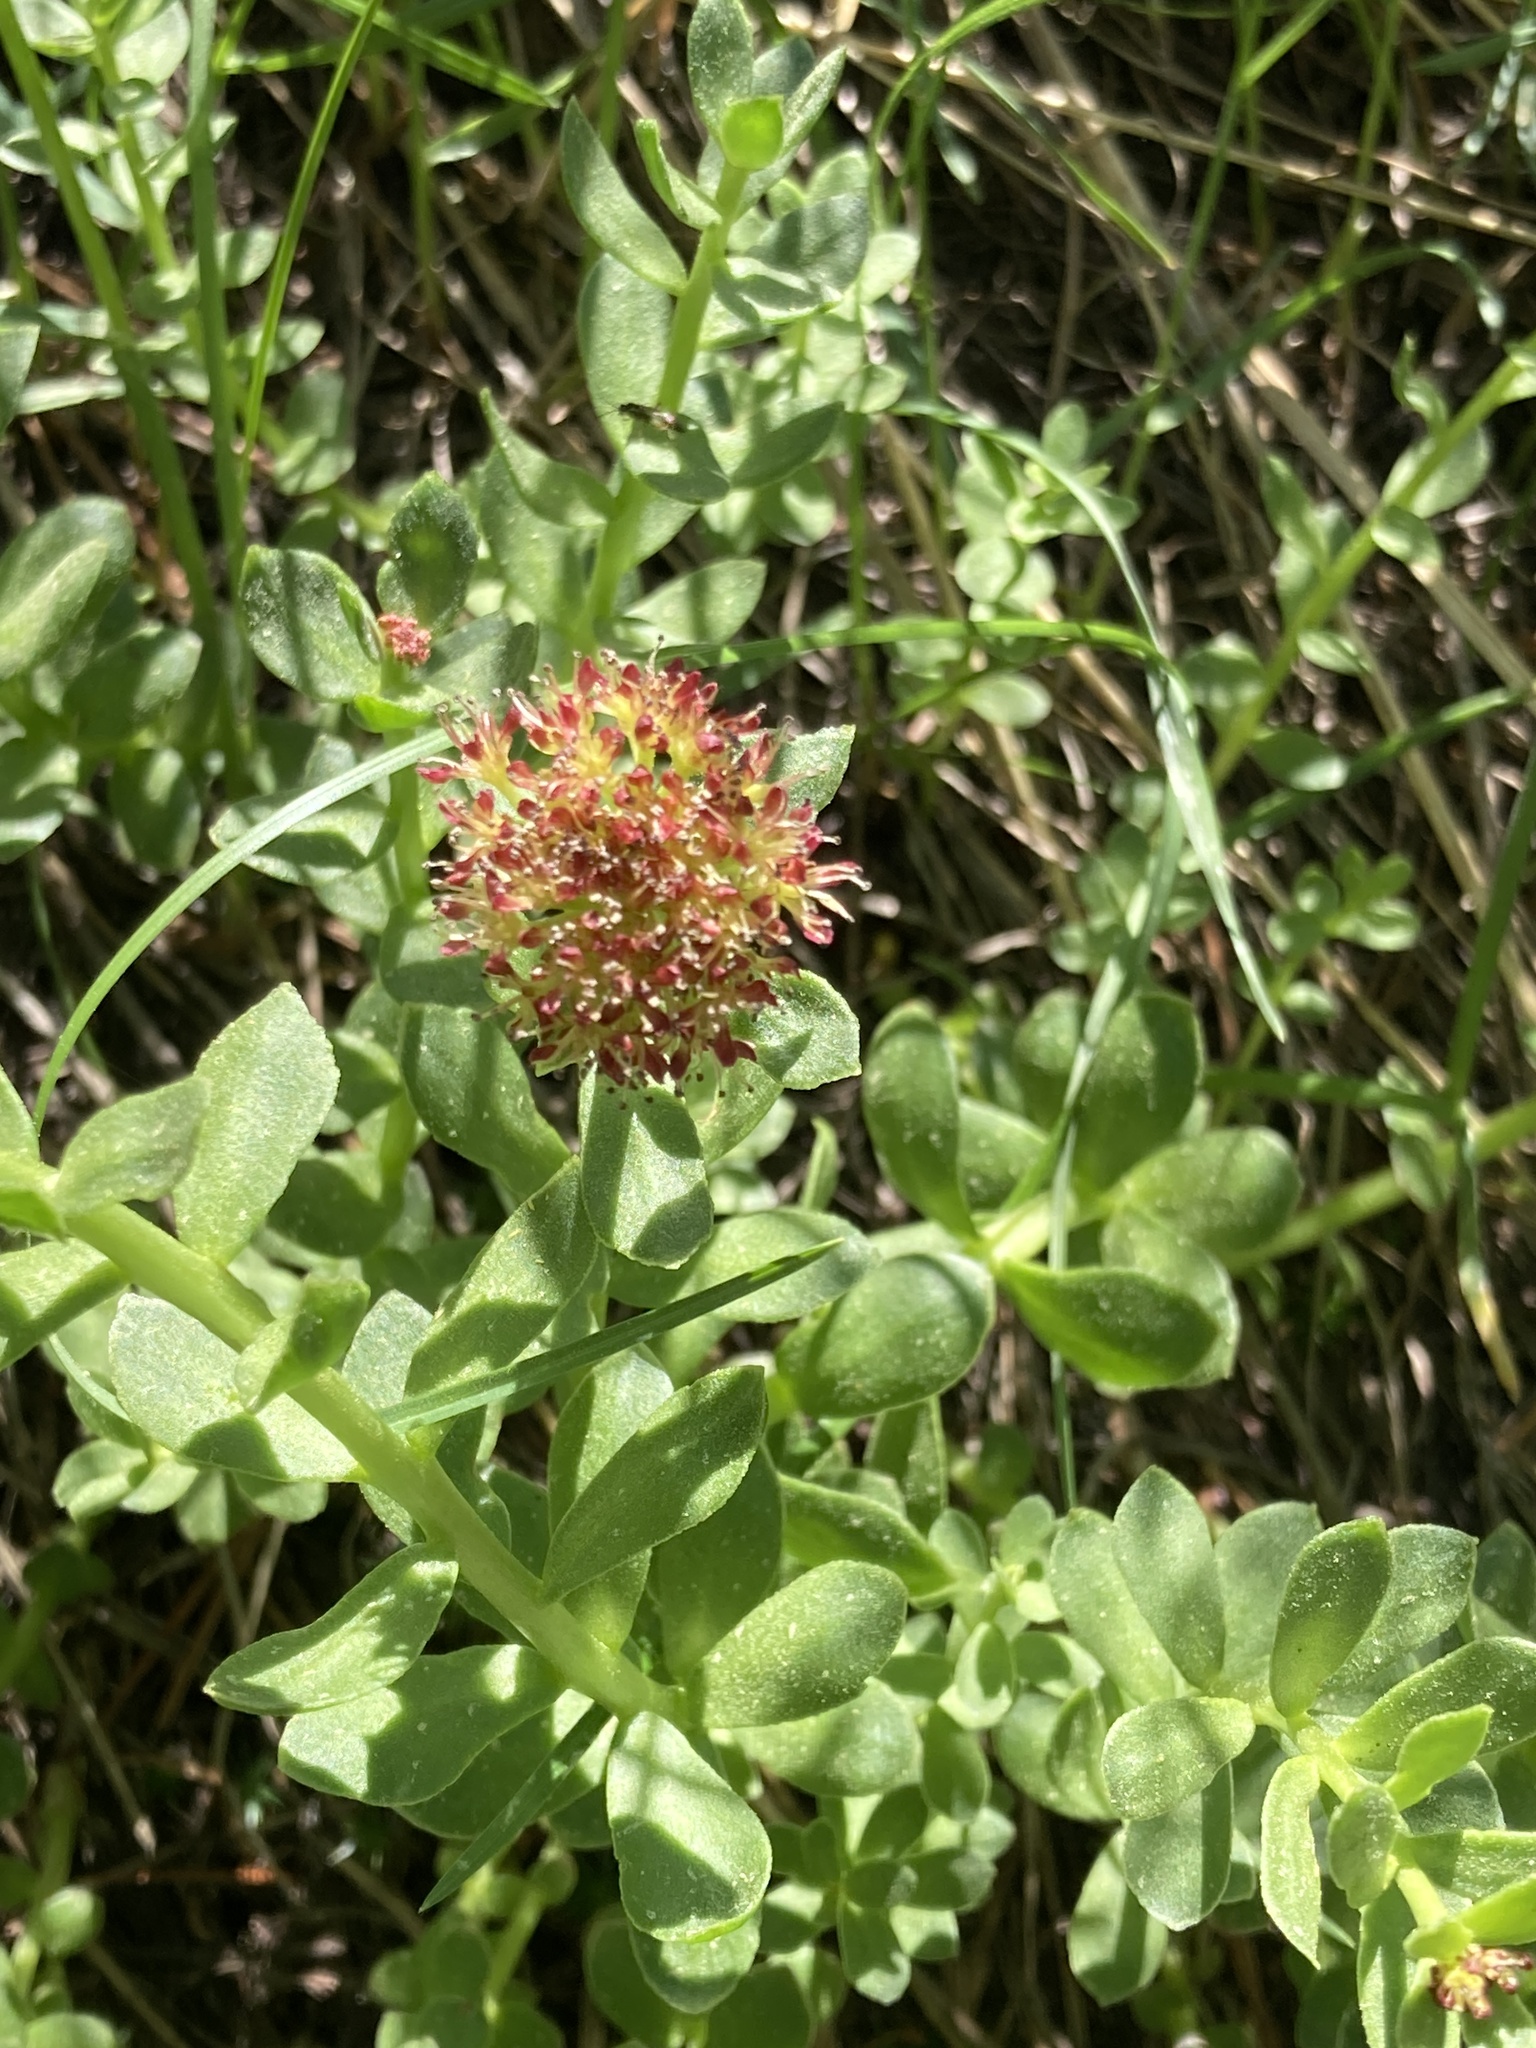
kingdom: Plantae
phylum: Tracheophyta
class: Magnoliopsida
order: Saxifragales
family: Crassulaceae
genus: Rhodiola
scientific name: Rhodiola integrifolia
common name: Western roseroot
